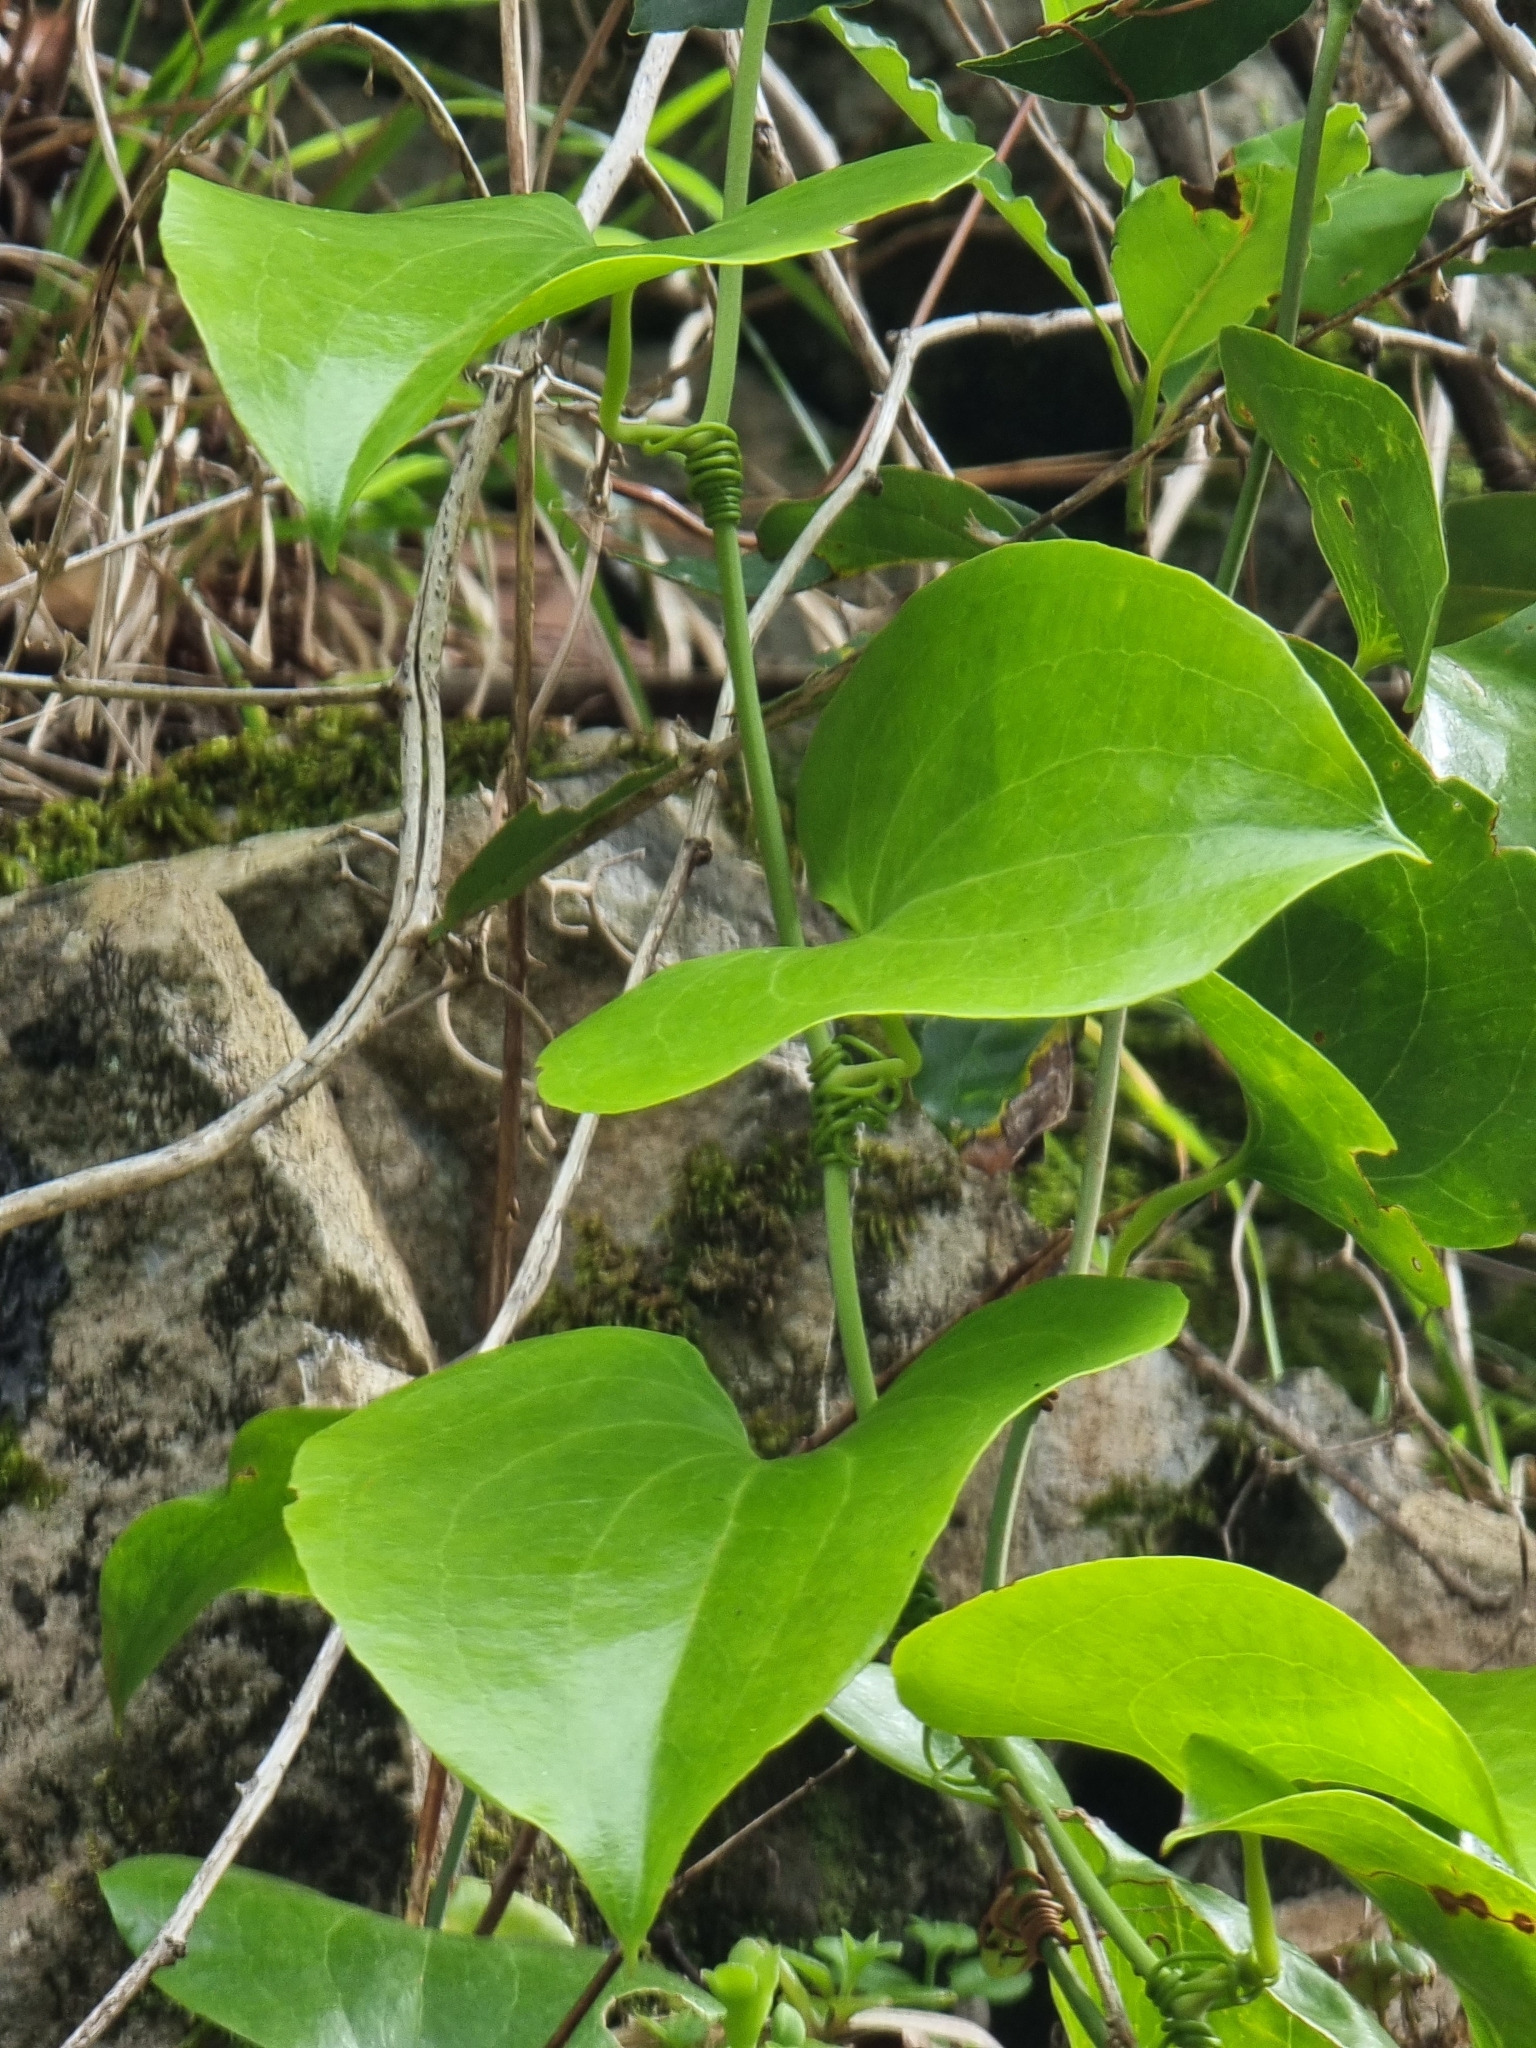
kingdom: Plantae
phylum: Tracheophyta
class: Liliopsida
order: Liliales
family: Smilacaceae
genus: Smilax
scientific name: Smilax aspera
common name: Common smilax
